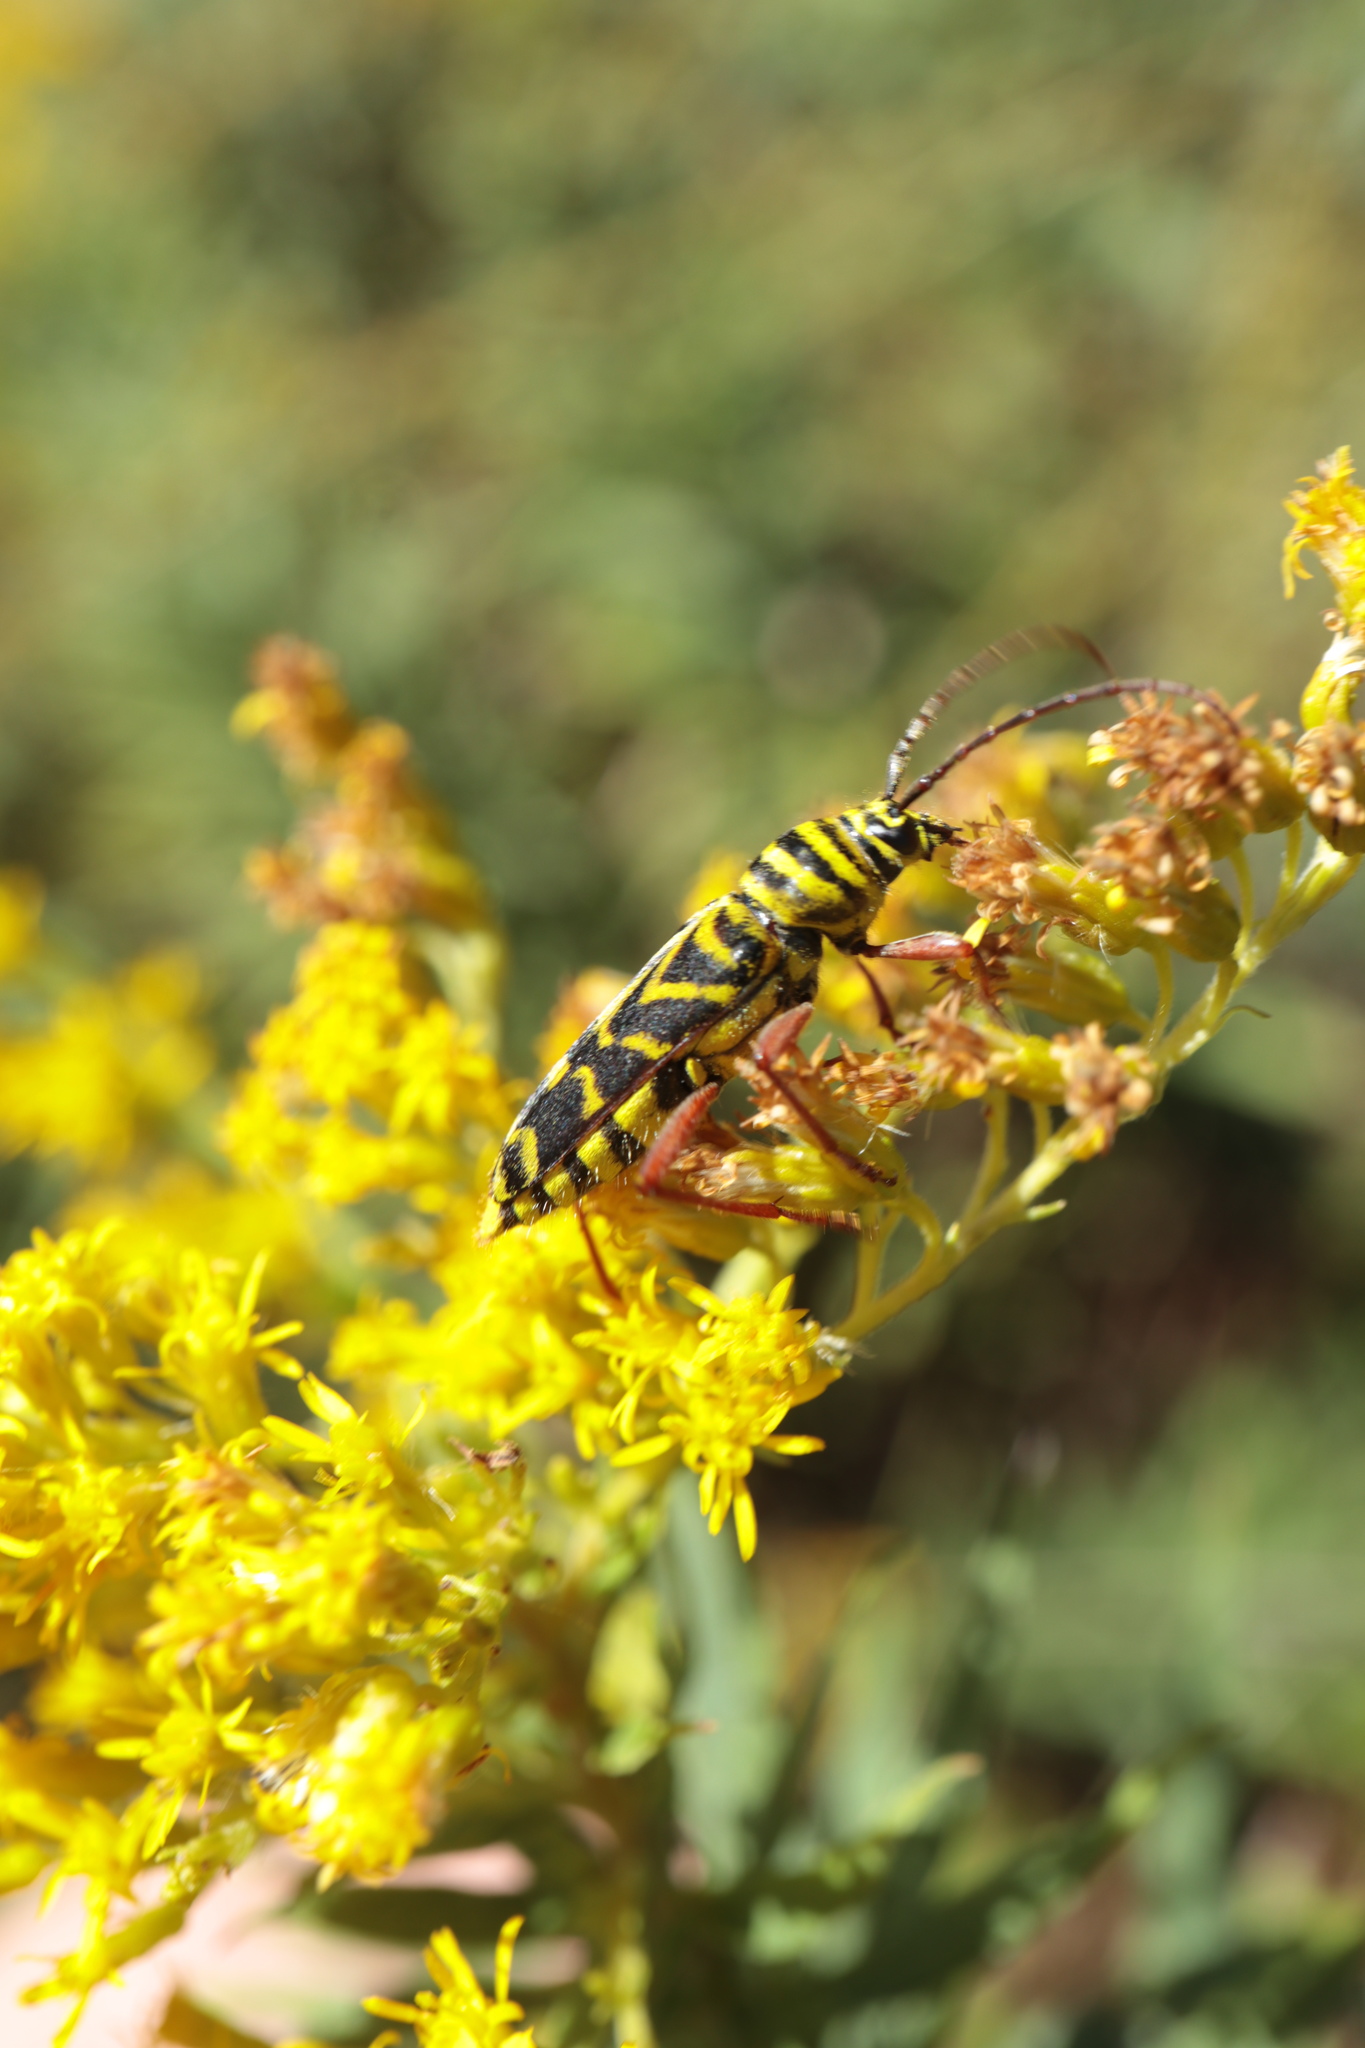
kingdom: Animalia
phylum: Arthropoda
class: Insecta
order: Coleoptera
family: Cerambycidae
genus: Megacyllene
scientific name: Megacyllene robiniae
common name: Locust borer
